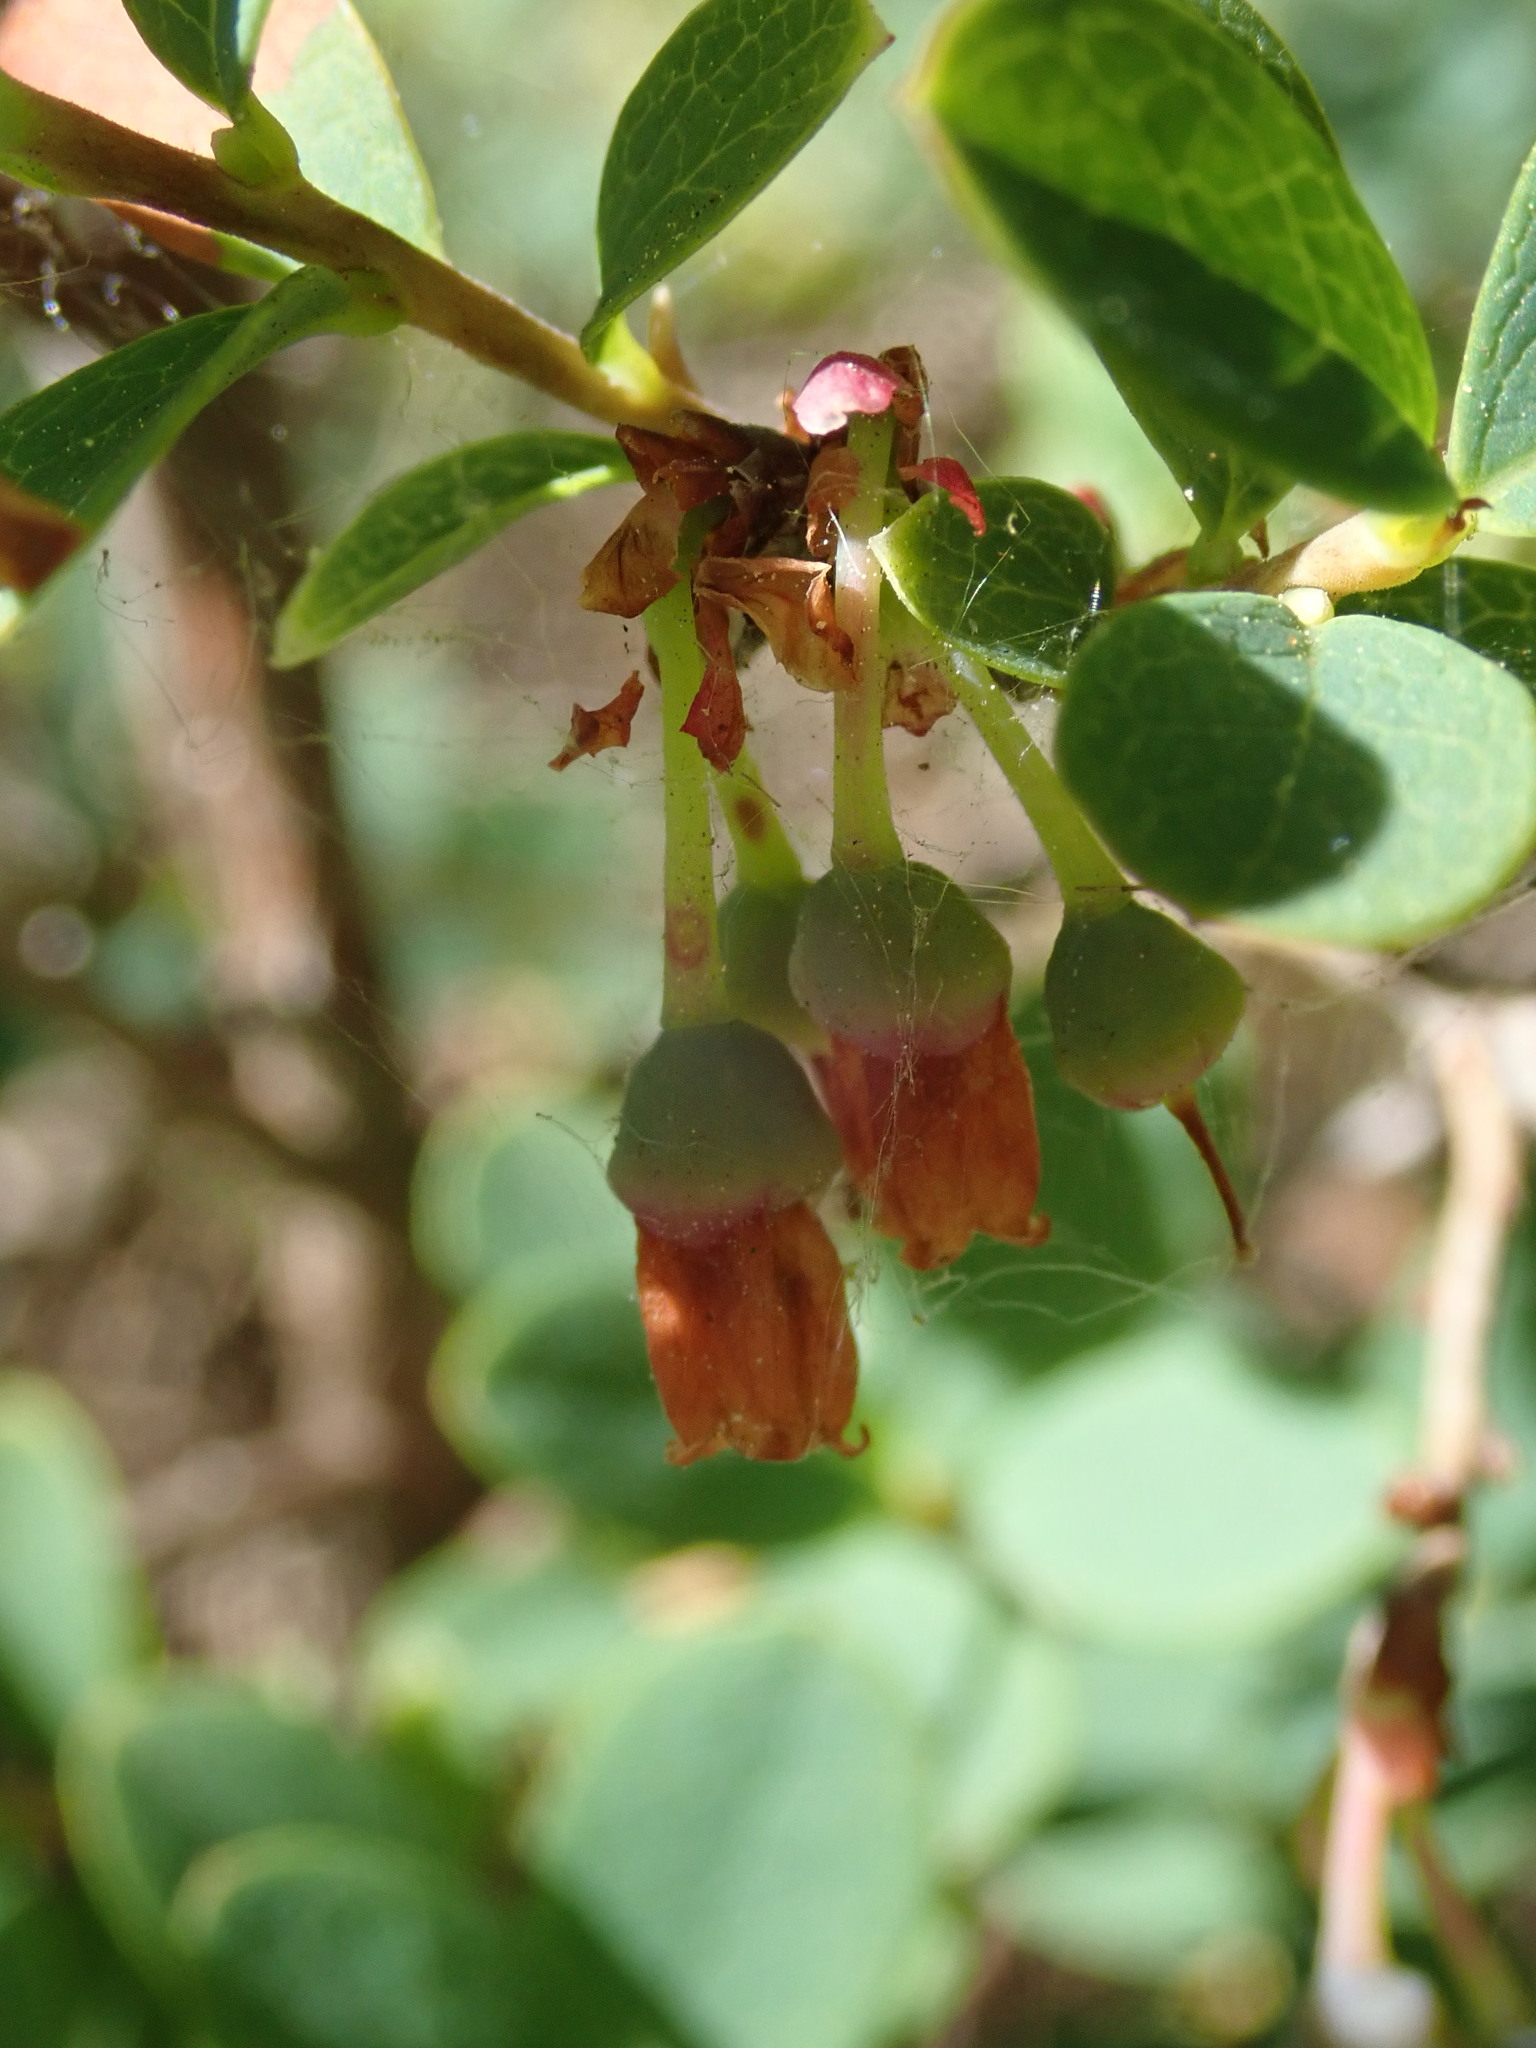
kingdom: Plantae
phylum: Tracheophyta
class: Magnoliopsida
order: Ericales
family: Ericaceae
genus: Vaccinium
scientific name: Vaccinium uliginosum
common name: Bog bilberry
